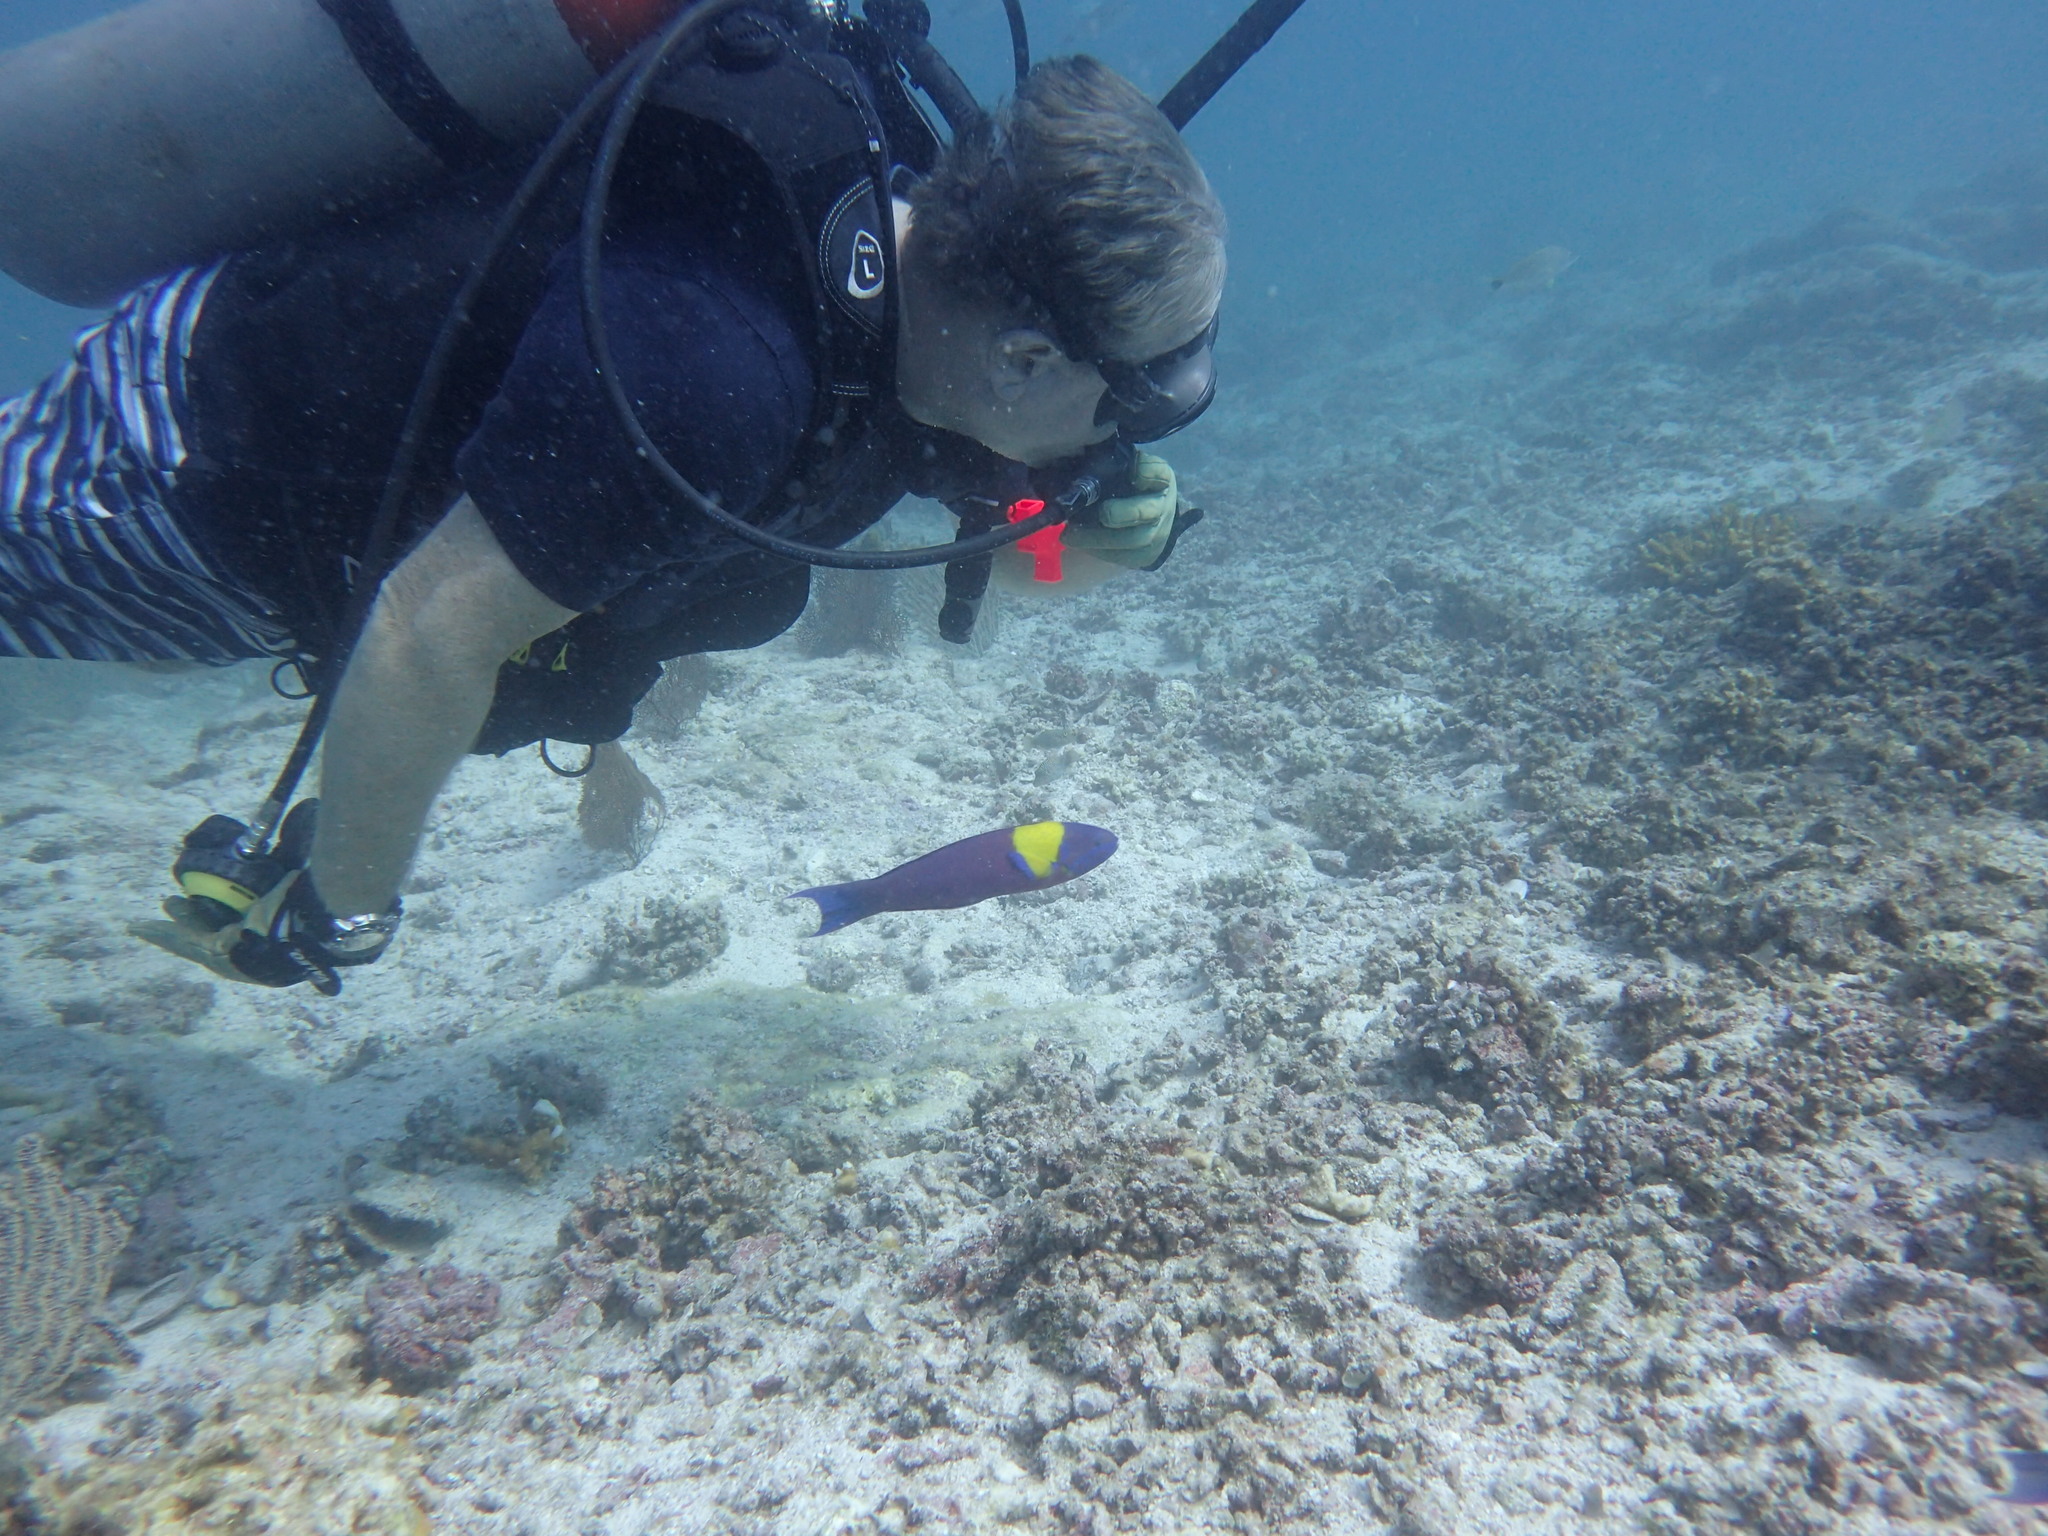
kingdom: Animalia
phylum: Chordata
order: Perciformes
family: Labridae
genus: Thalassoma
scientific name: Thalassoma lucasanum
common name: Cortez rainbow wrasse
